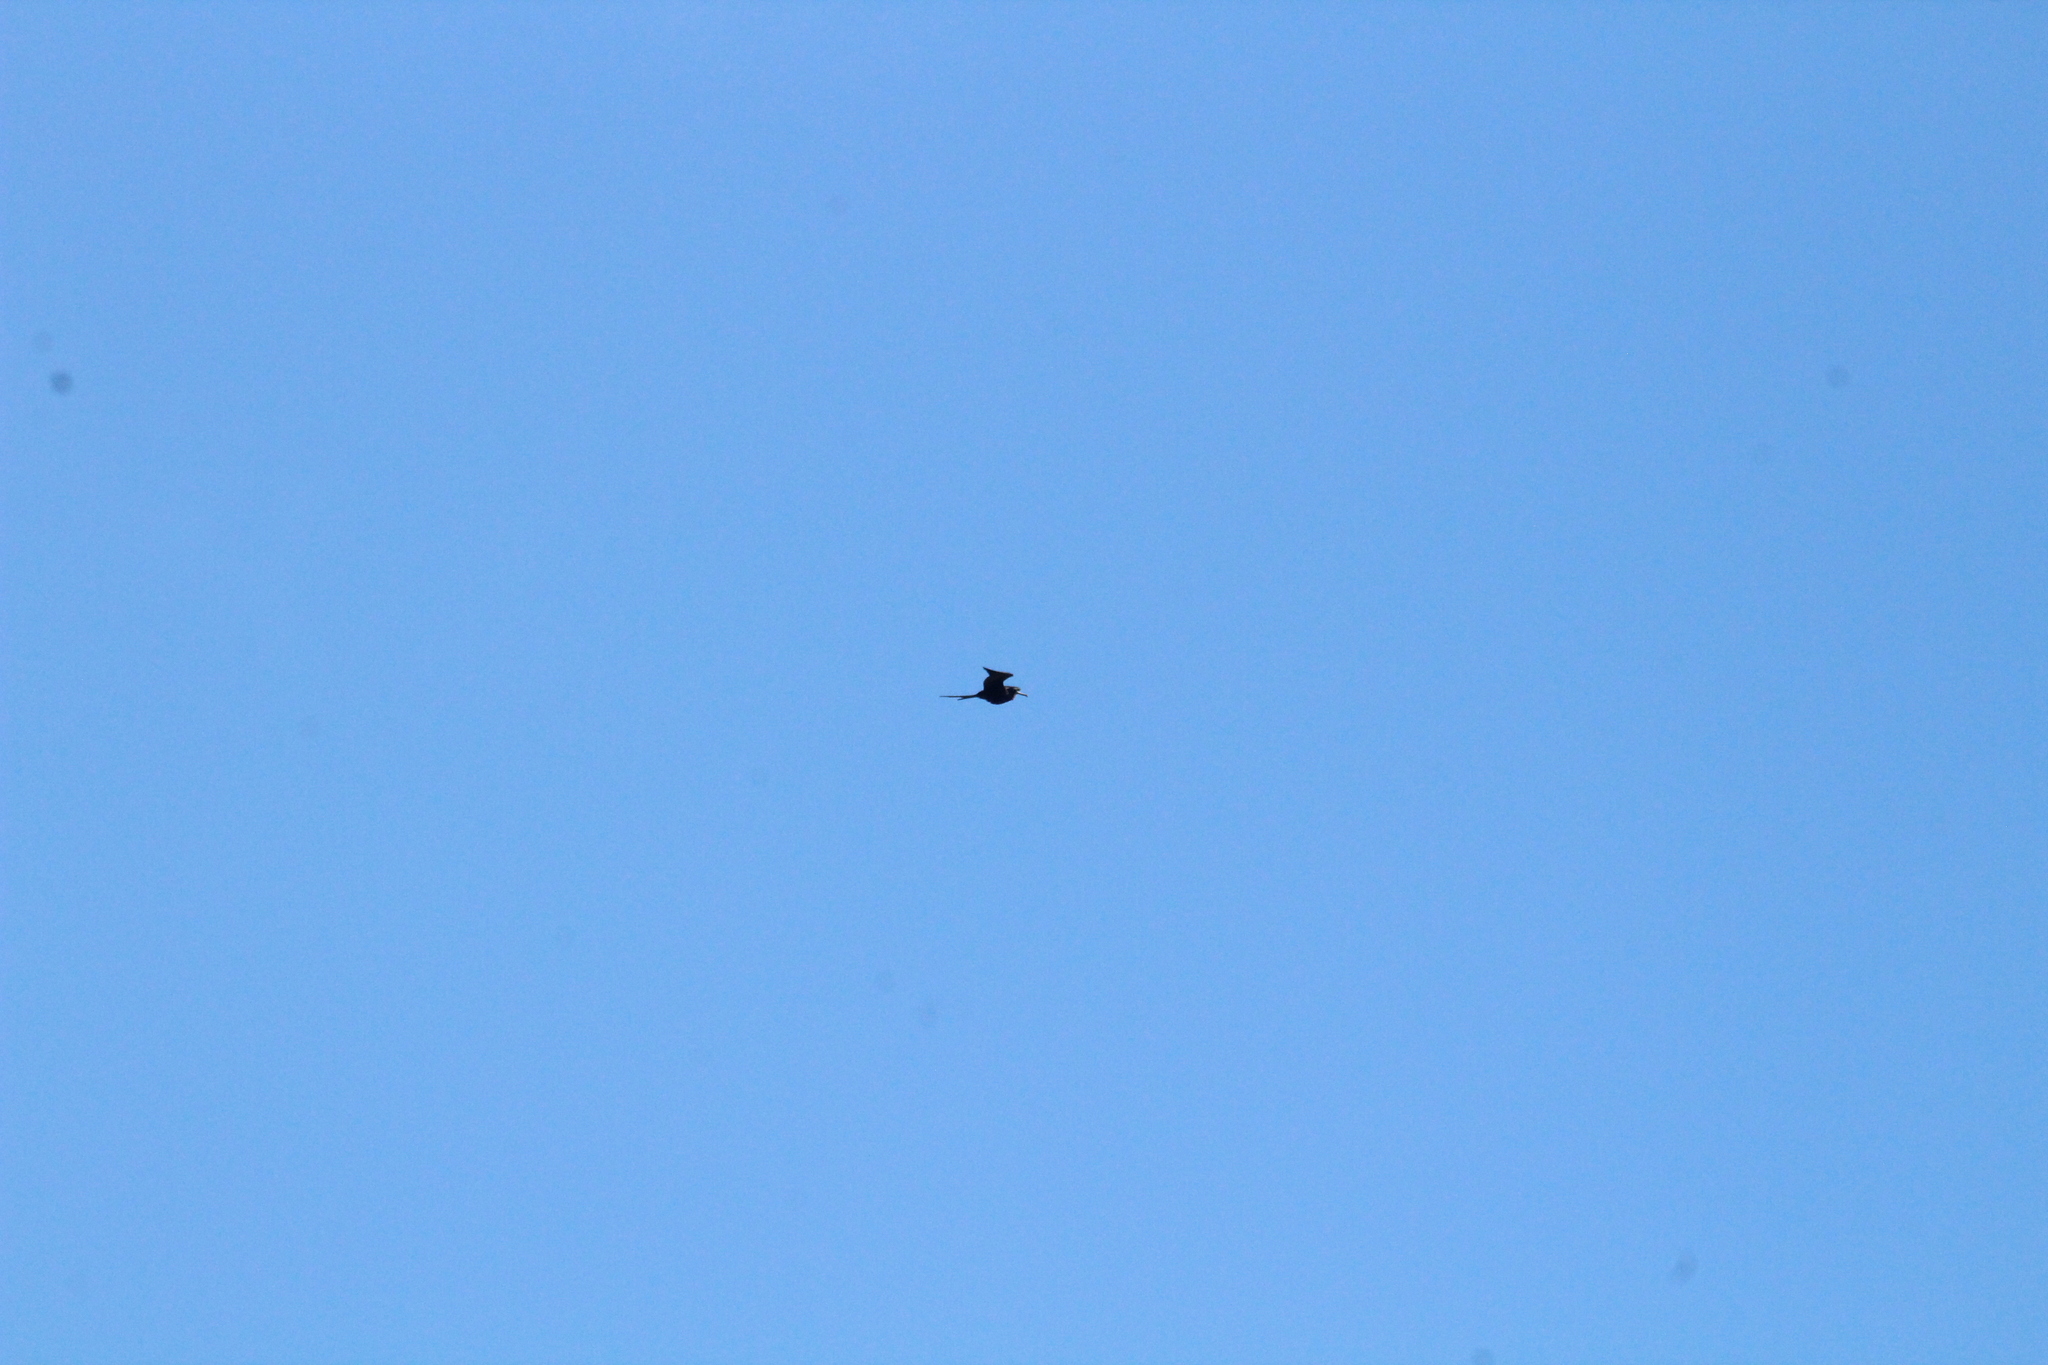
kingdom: Animalia
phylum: Chordata
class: Aves
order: Suliformes
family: Fregatidae
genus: Fregata
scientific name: Fregata magnificens
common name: Magnificent frigatebird
